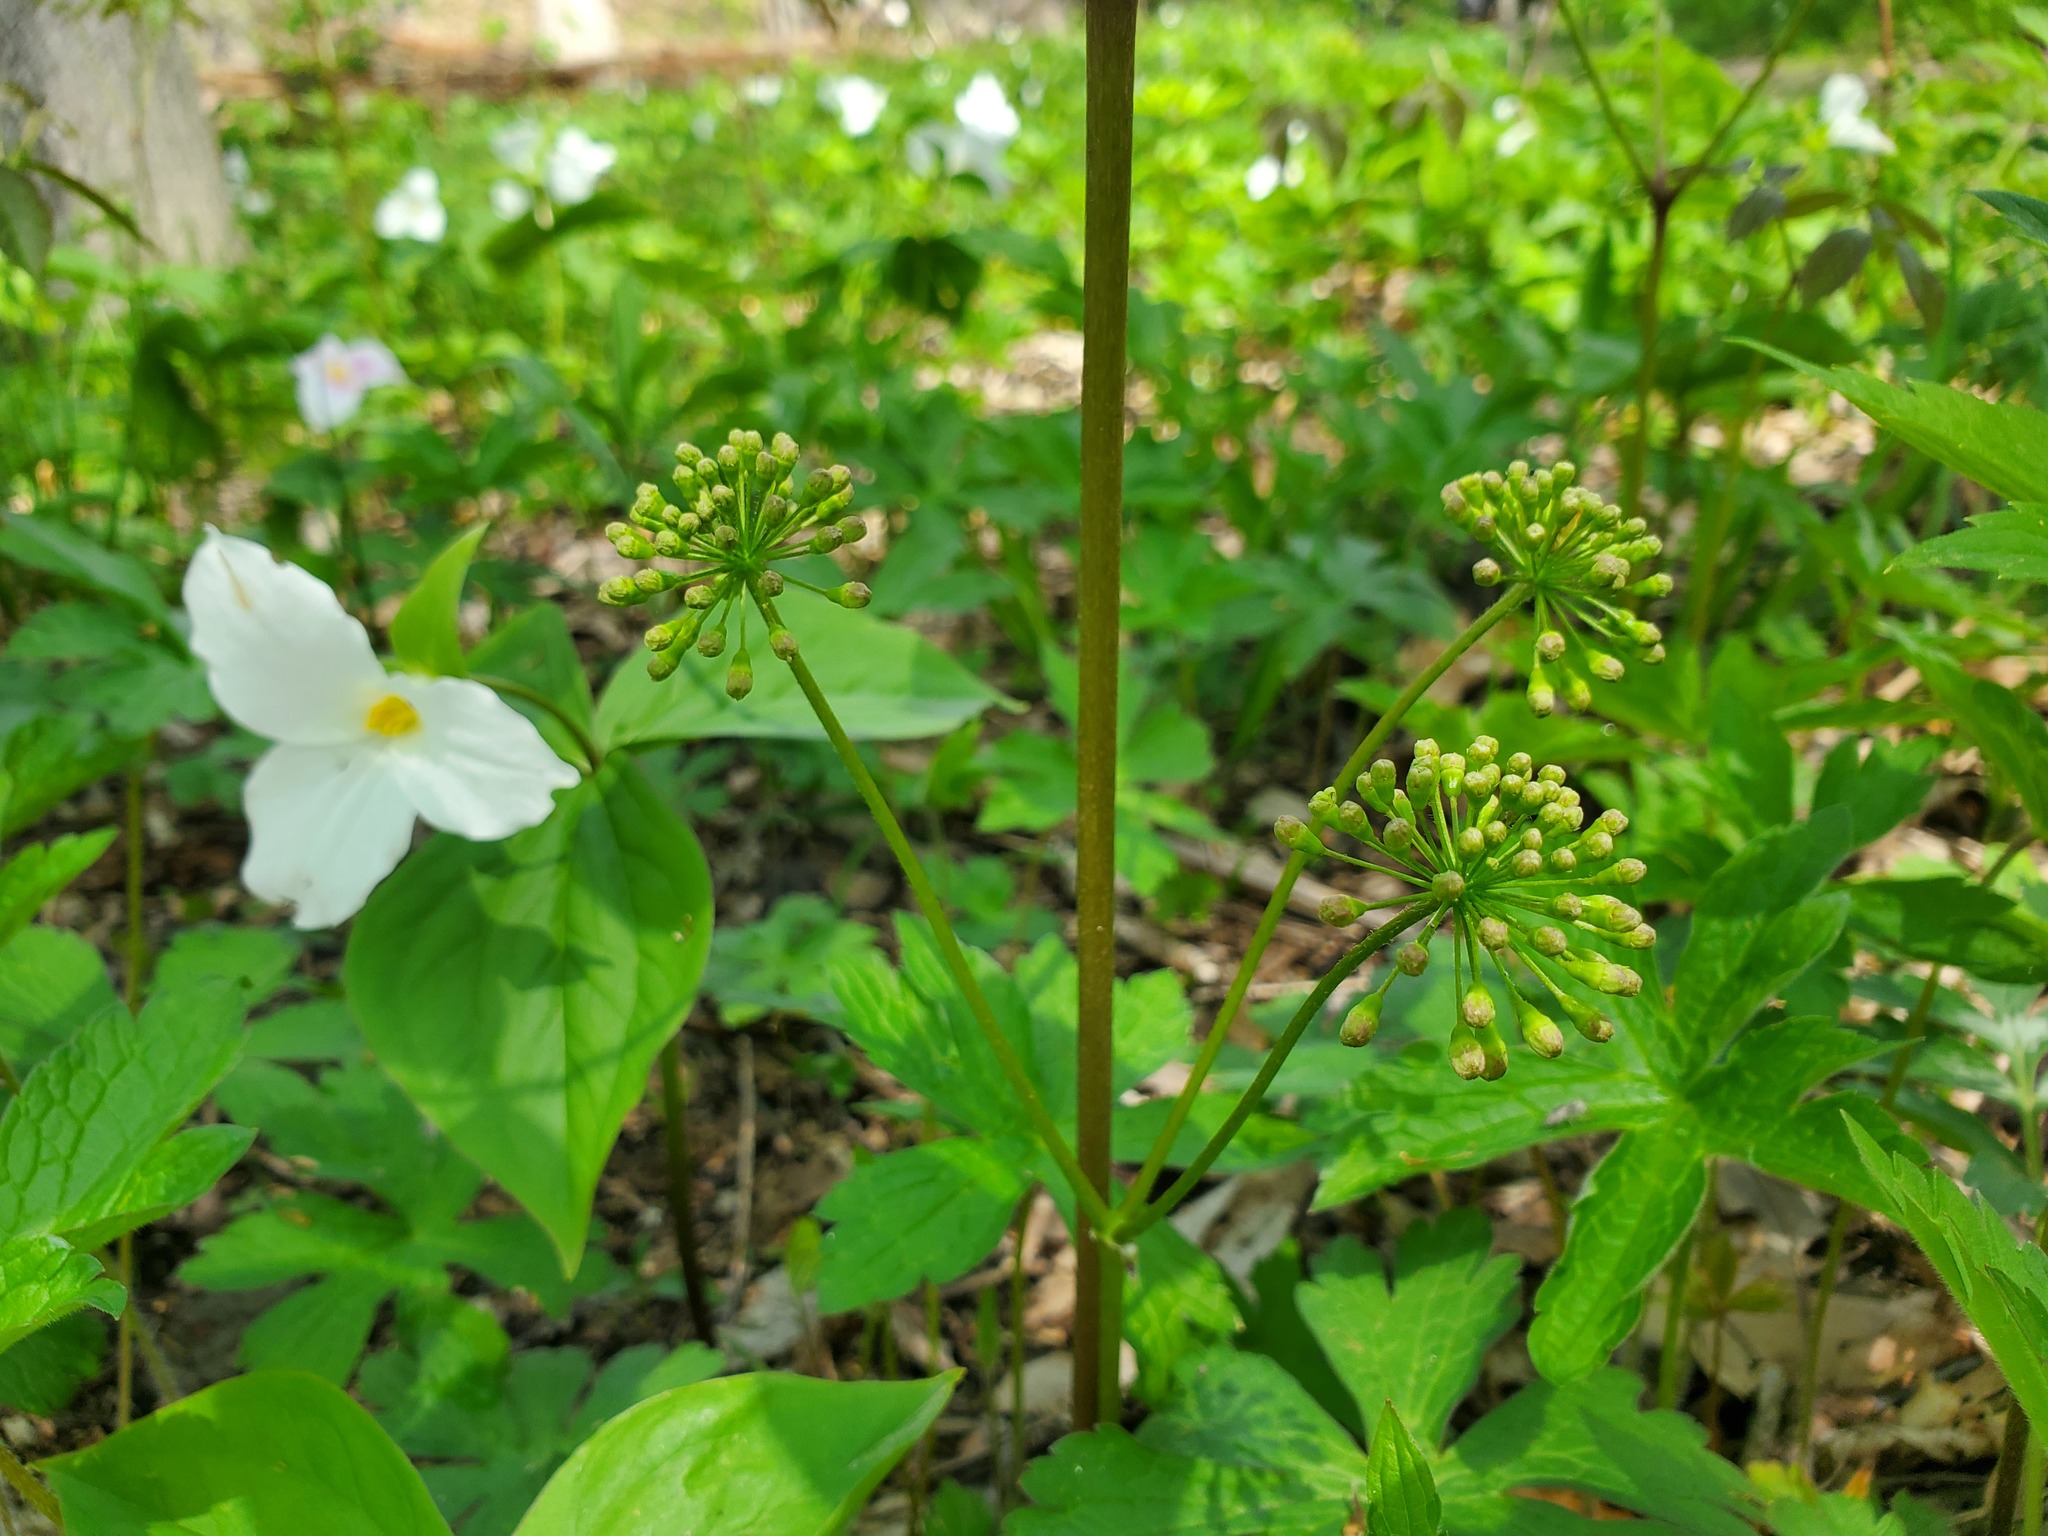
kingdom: Plantae
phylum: Tracheophyta
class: Magnoliopsida
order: Apiales
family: Araliaceae
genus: Aralia
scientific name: Aralia nudicaulis
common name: Wild sarsaparilla
